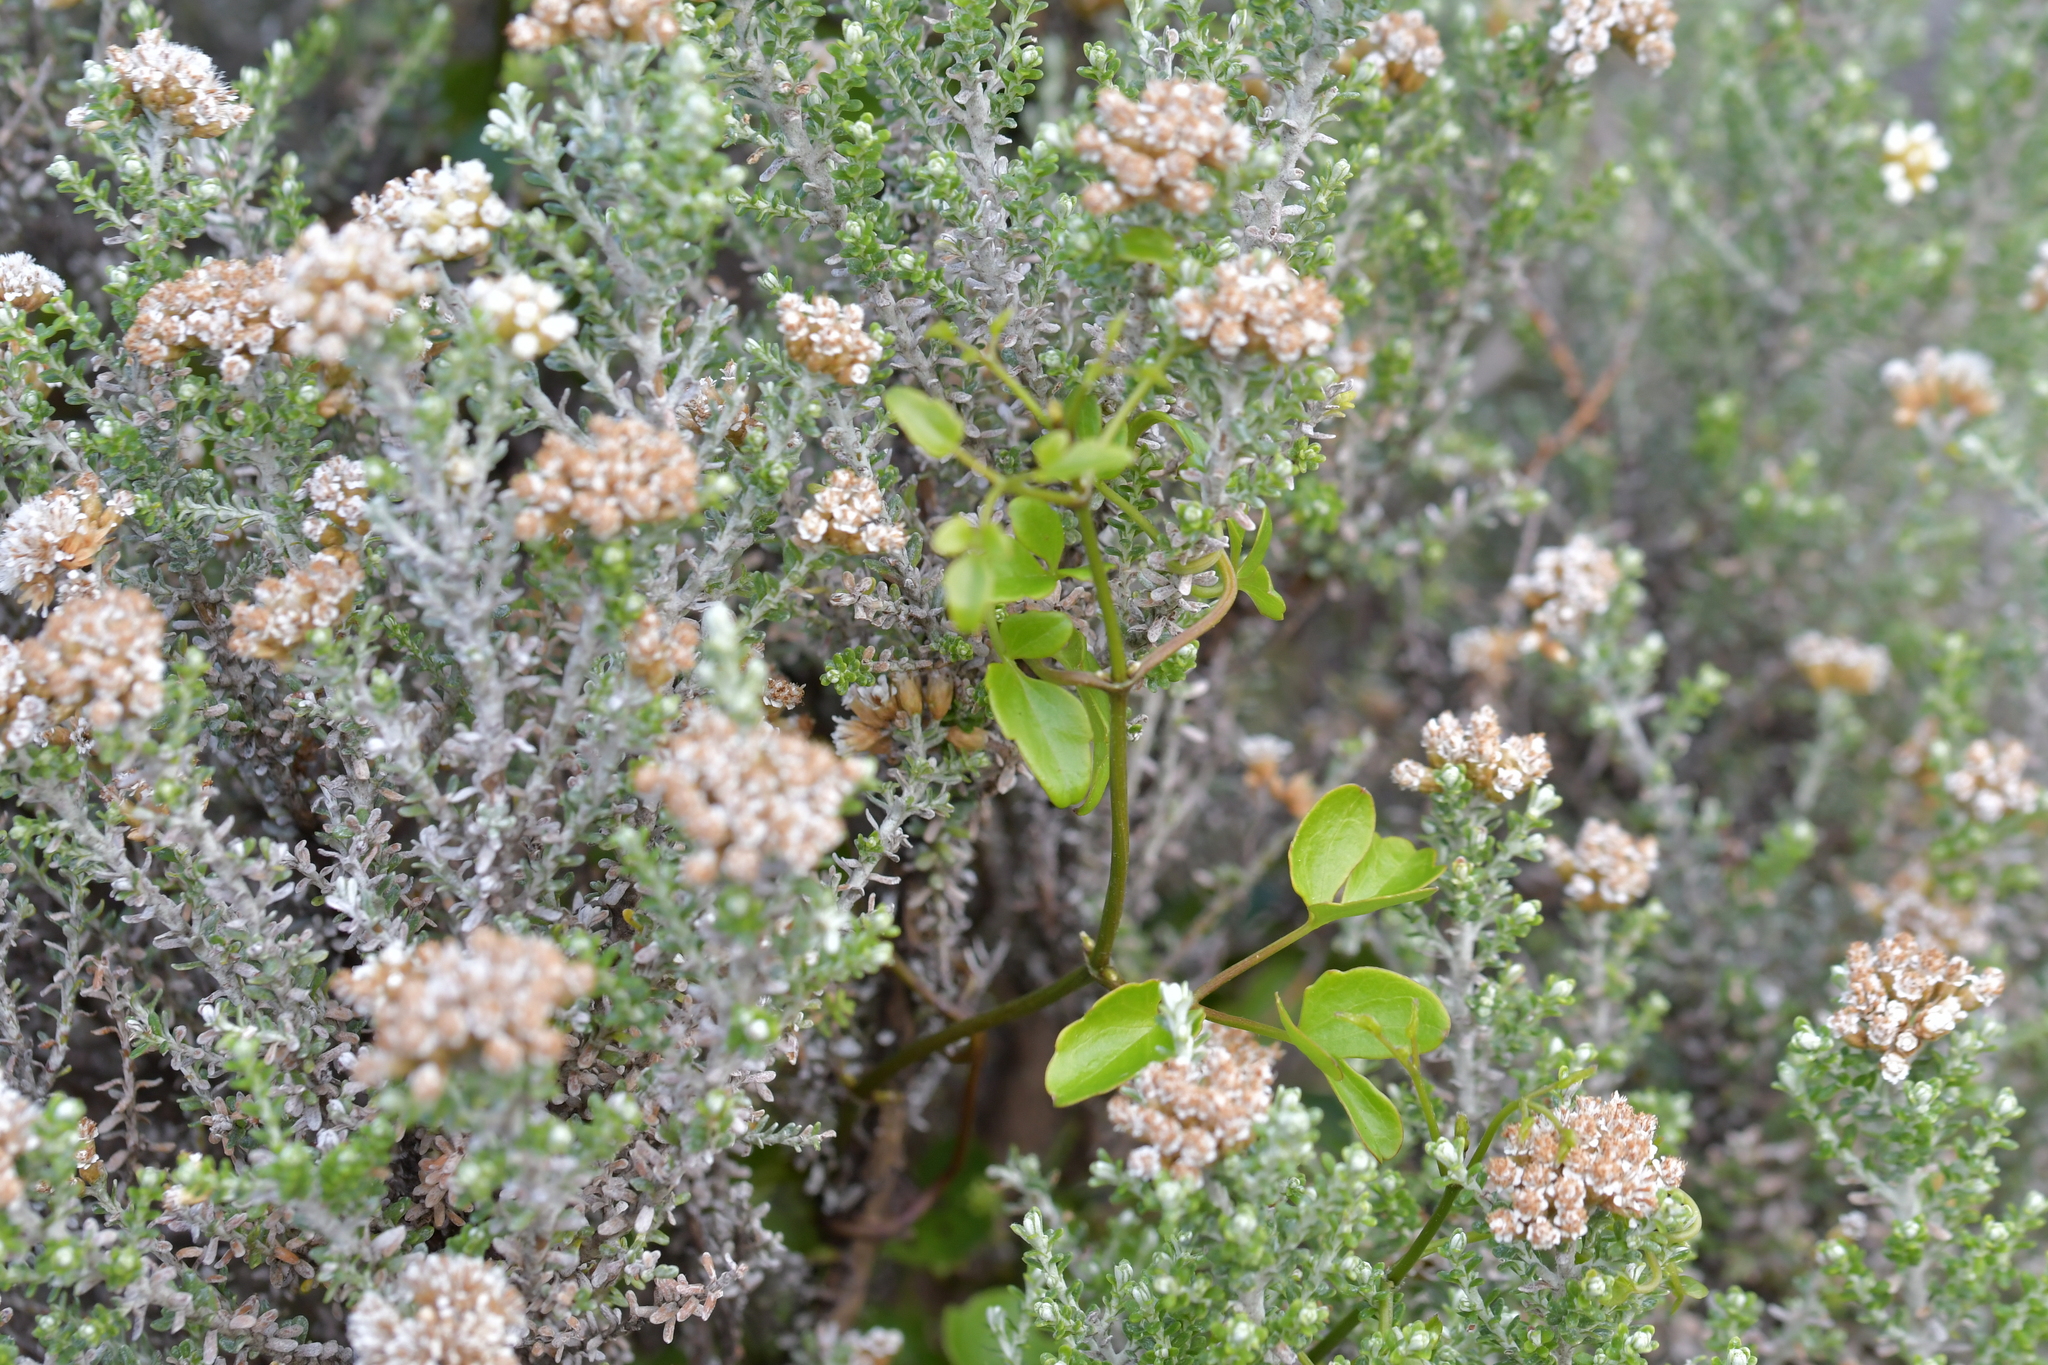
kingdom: Plantae
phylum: Tracheophyta
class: Magnoliopsida
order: Ranunculales
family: Ranunculaceae
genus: Clematis
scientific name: Clematis forsteri
